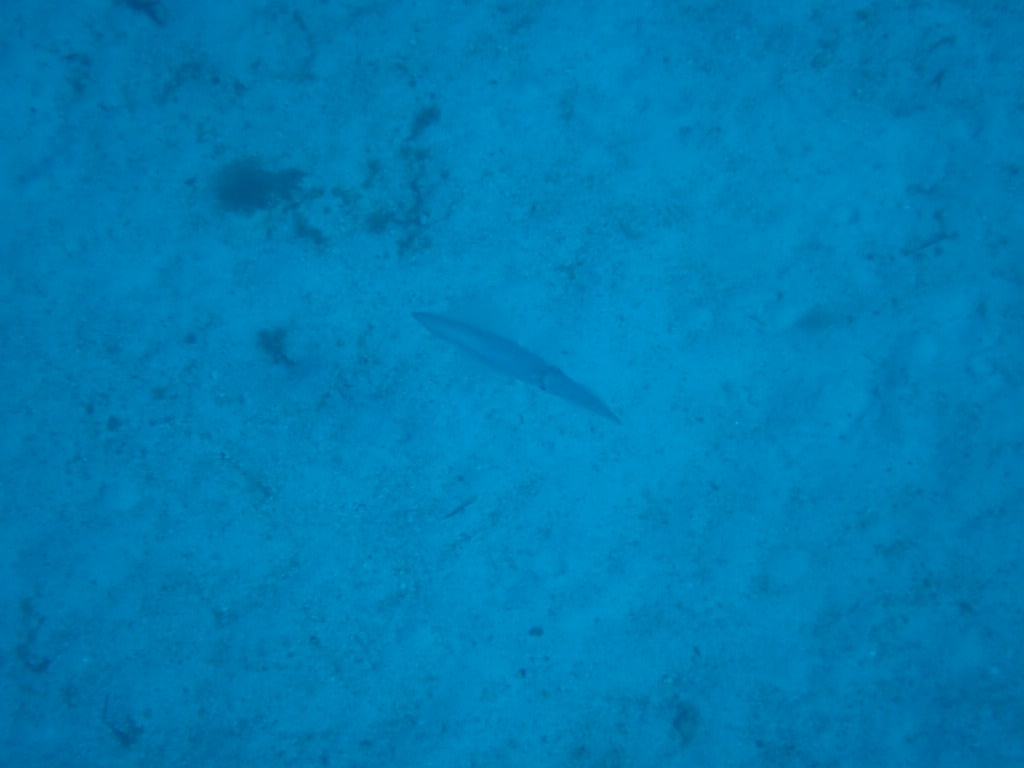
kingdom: Animalia
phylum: Mollusca
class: Cephalopoda
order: Myopsida
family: Loliginidae
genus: Loligo
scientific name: Loligo vulgaris
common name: European squid
